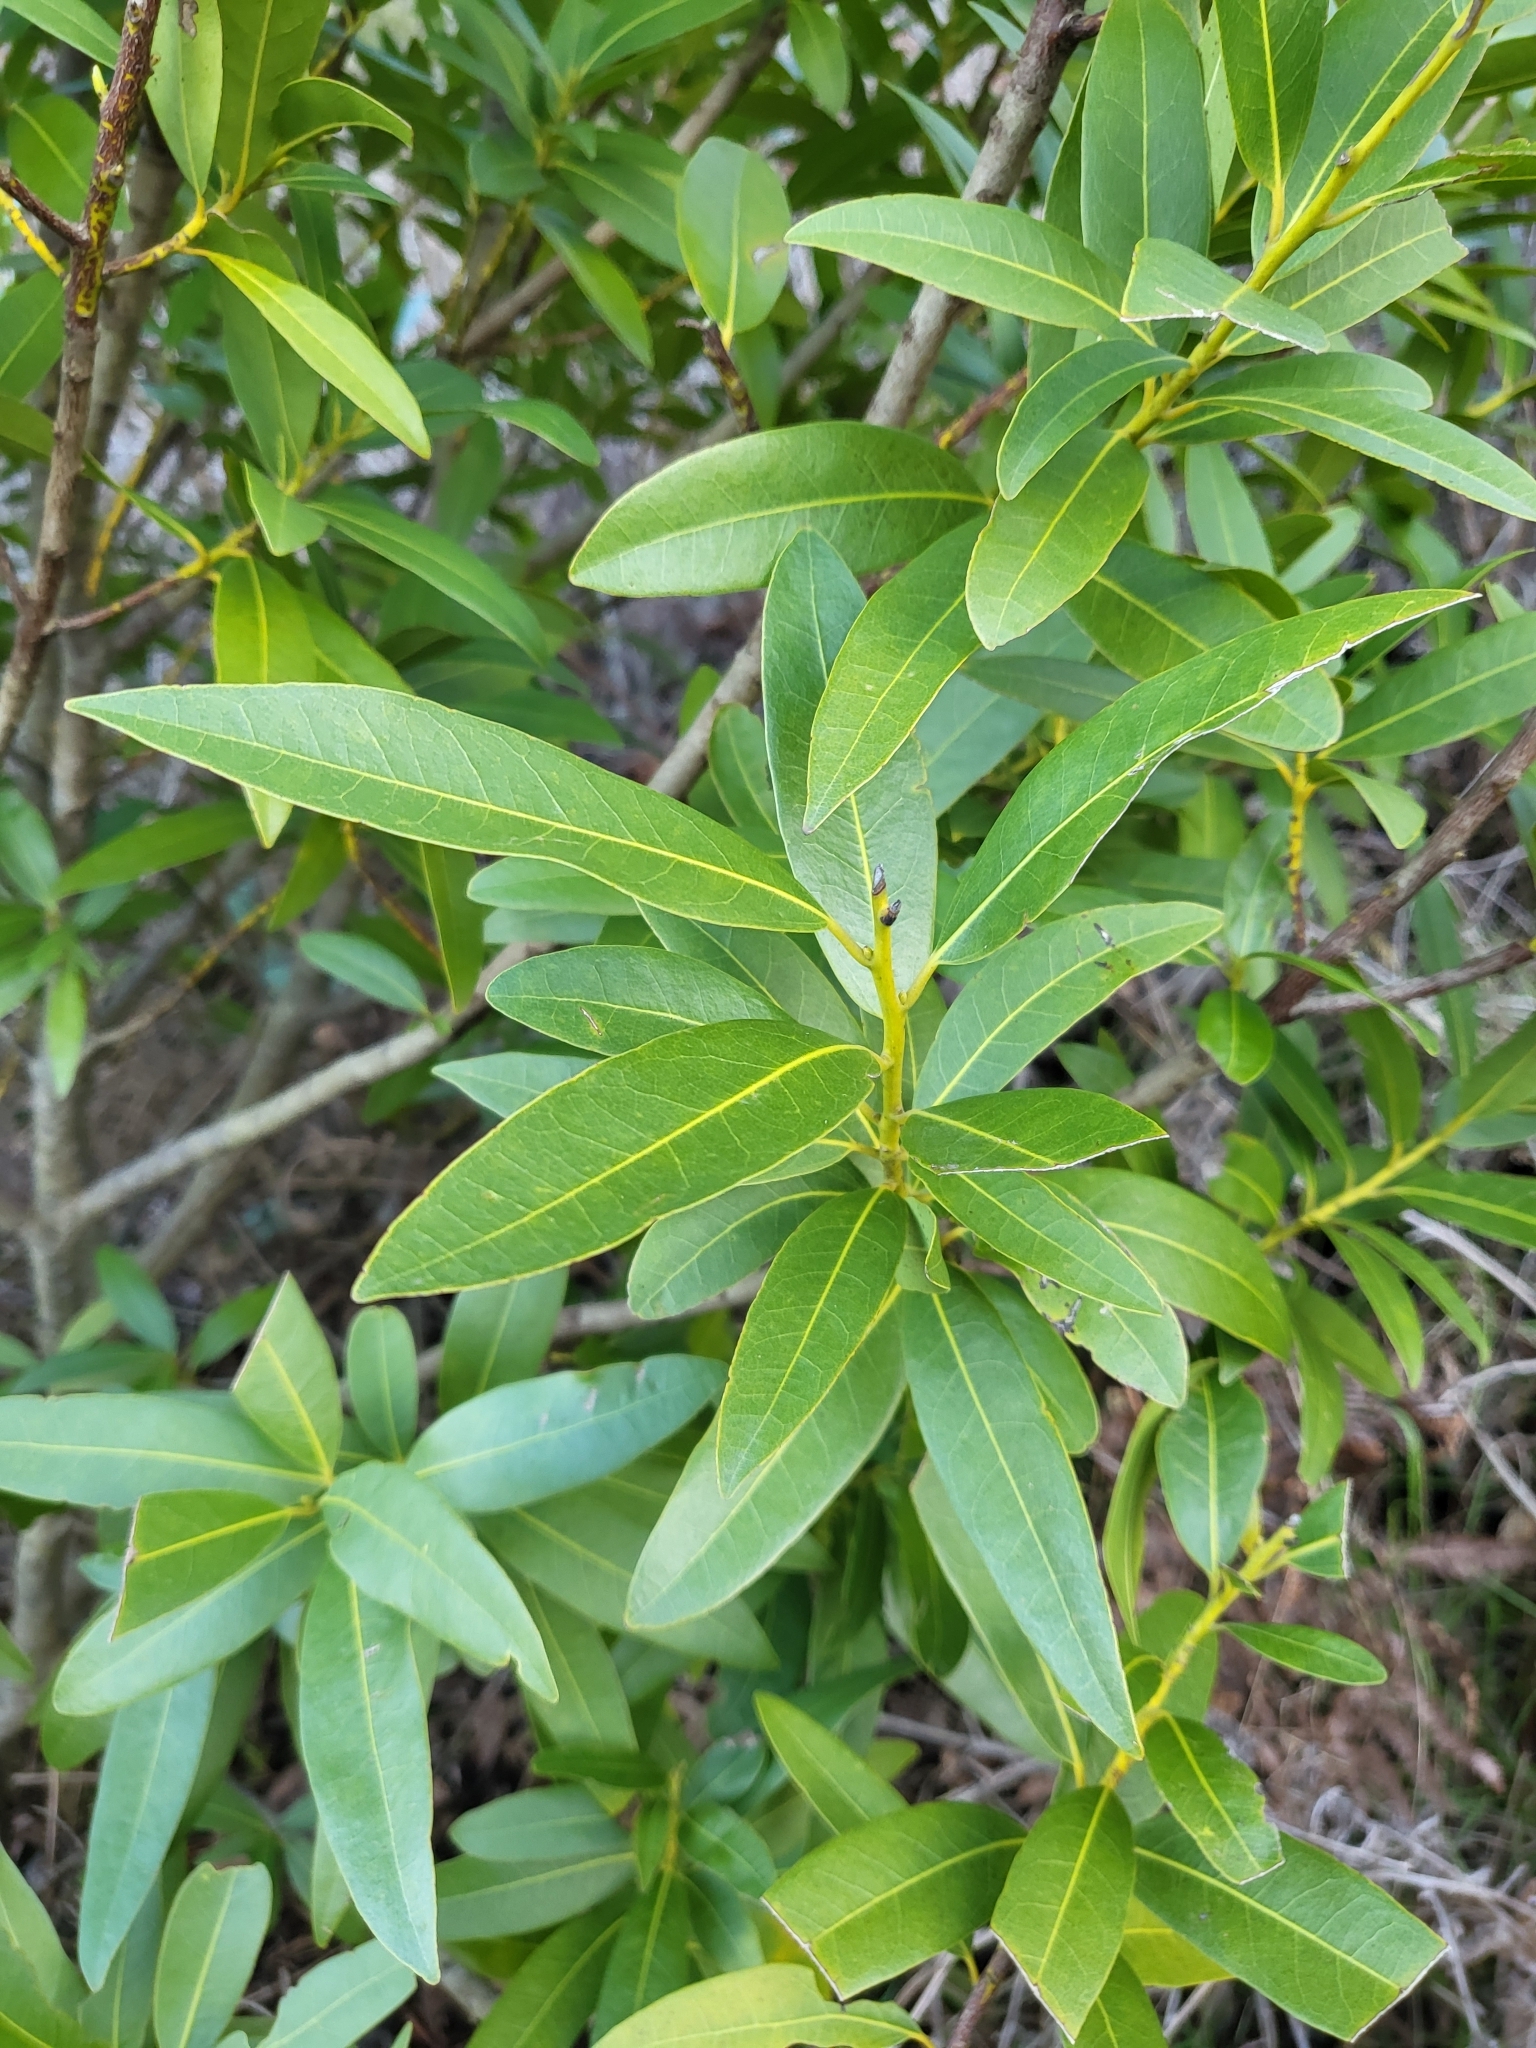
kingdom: Plantae
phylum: Tracheophyta
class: Magnoliopsida
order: Laurales
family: Lauraceae
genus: Umbellularia
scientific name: Umbellularia californica
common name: California bay
